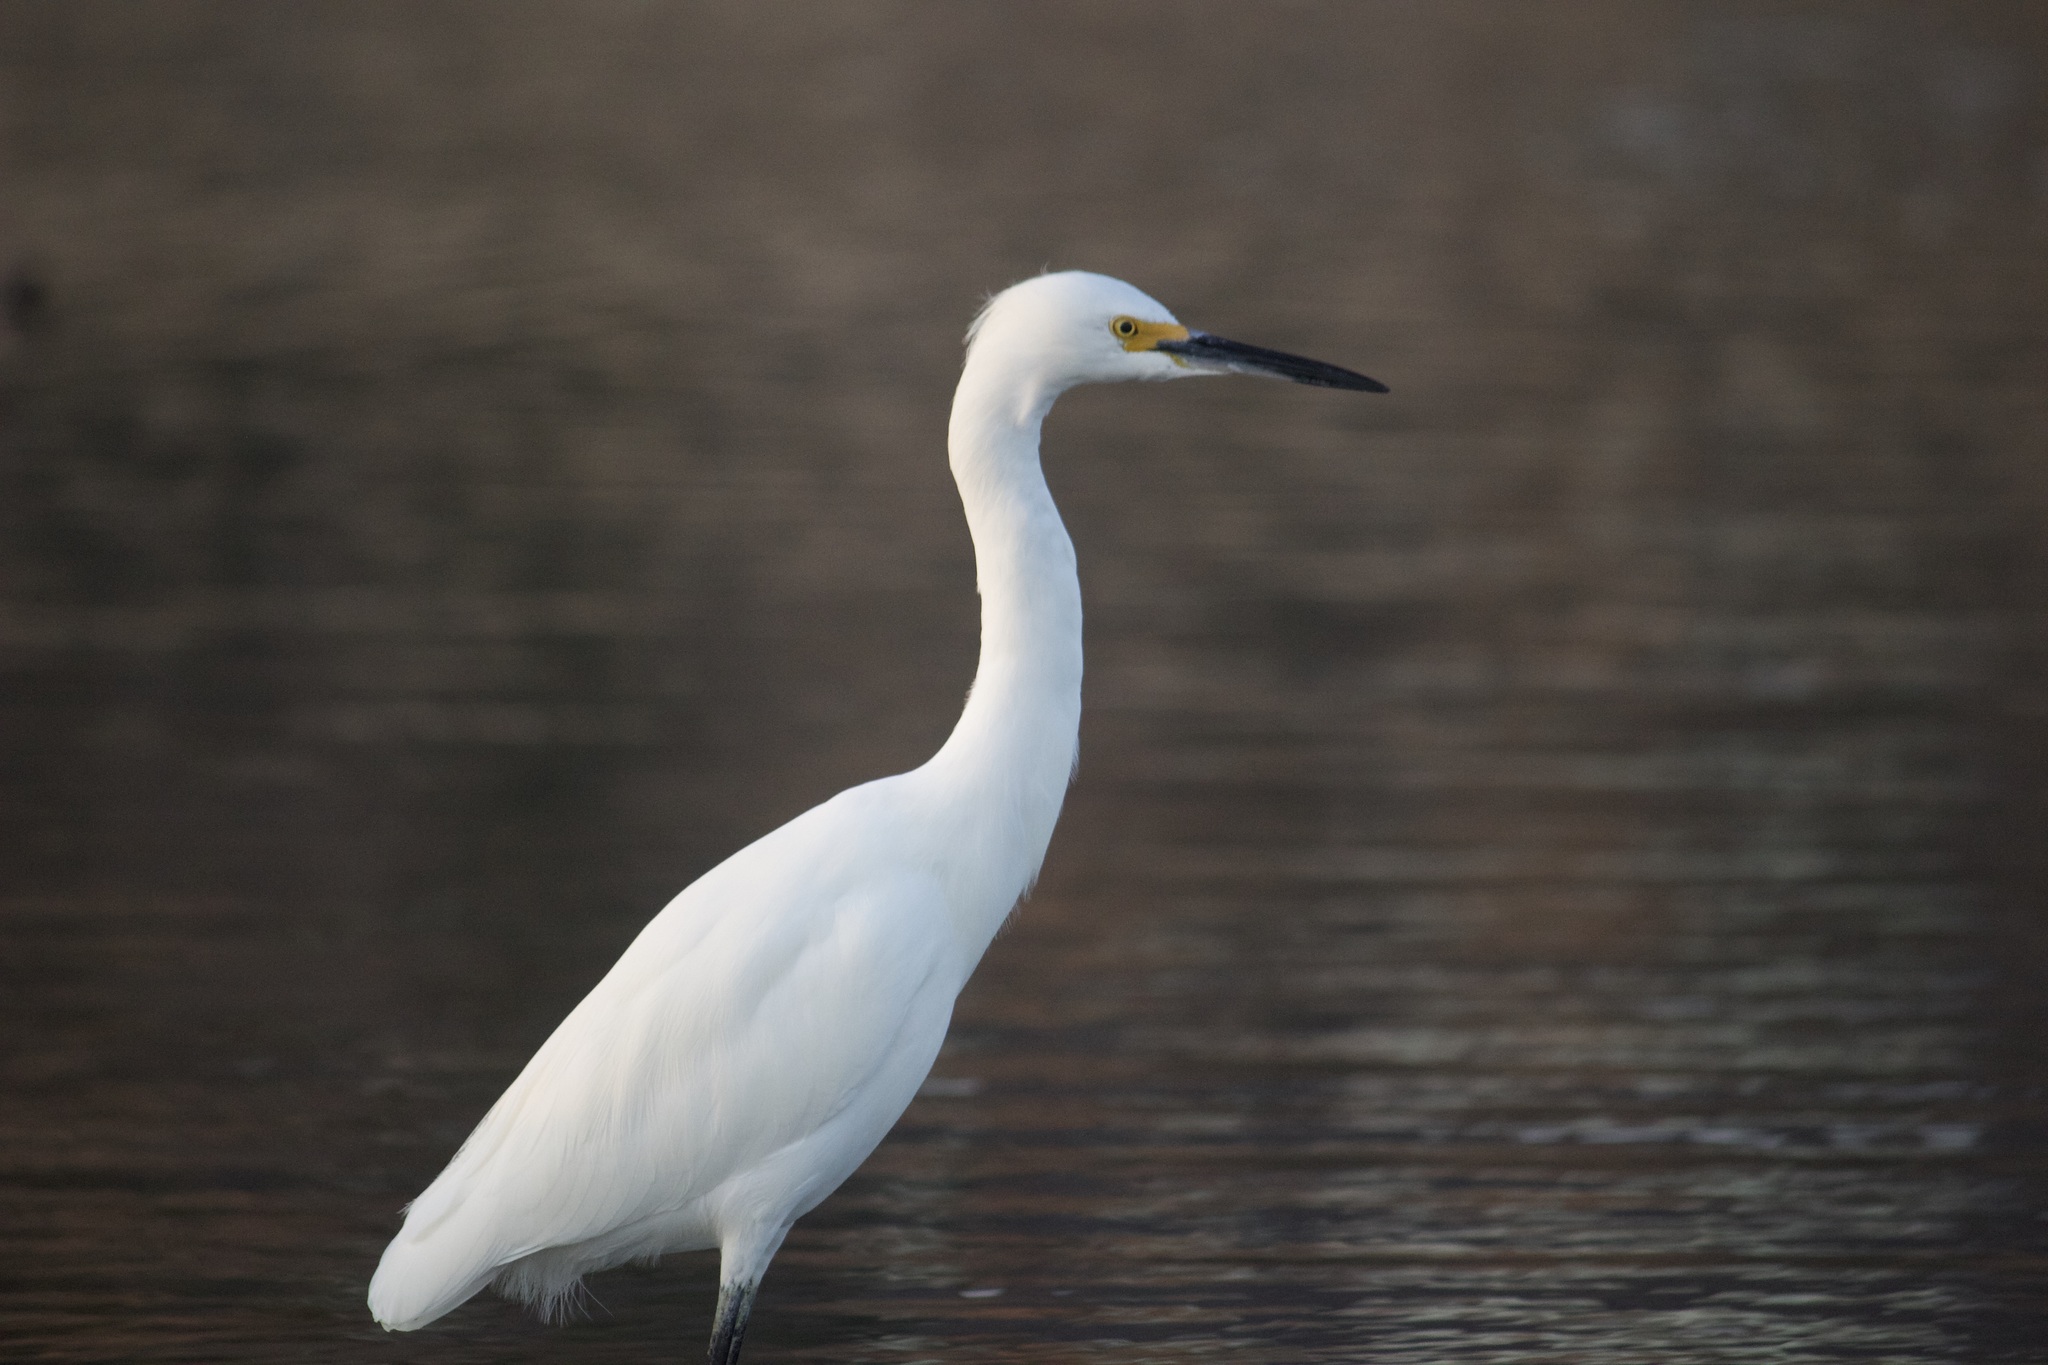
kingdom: Animalia
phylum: Chordata
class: Aves
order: Pelecaniformes
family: Ardeidae
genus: Egretta
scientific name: Egretta thula
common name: Snowy egret
